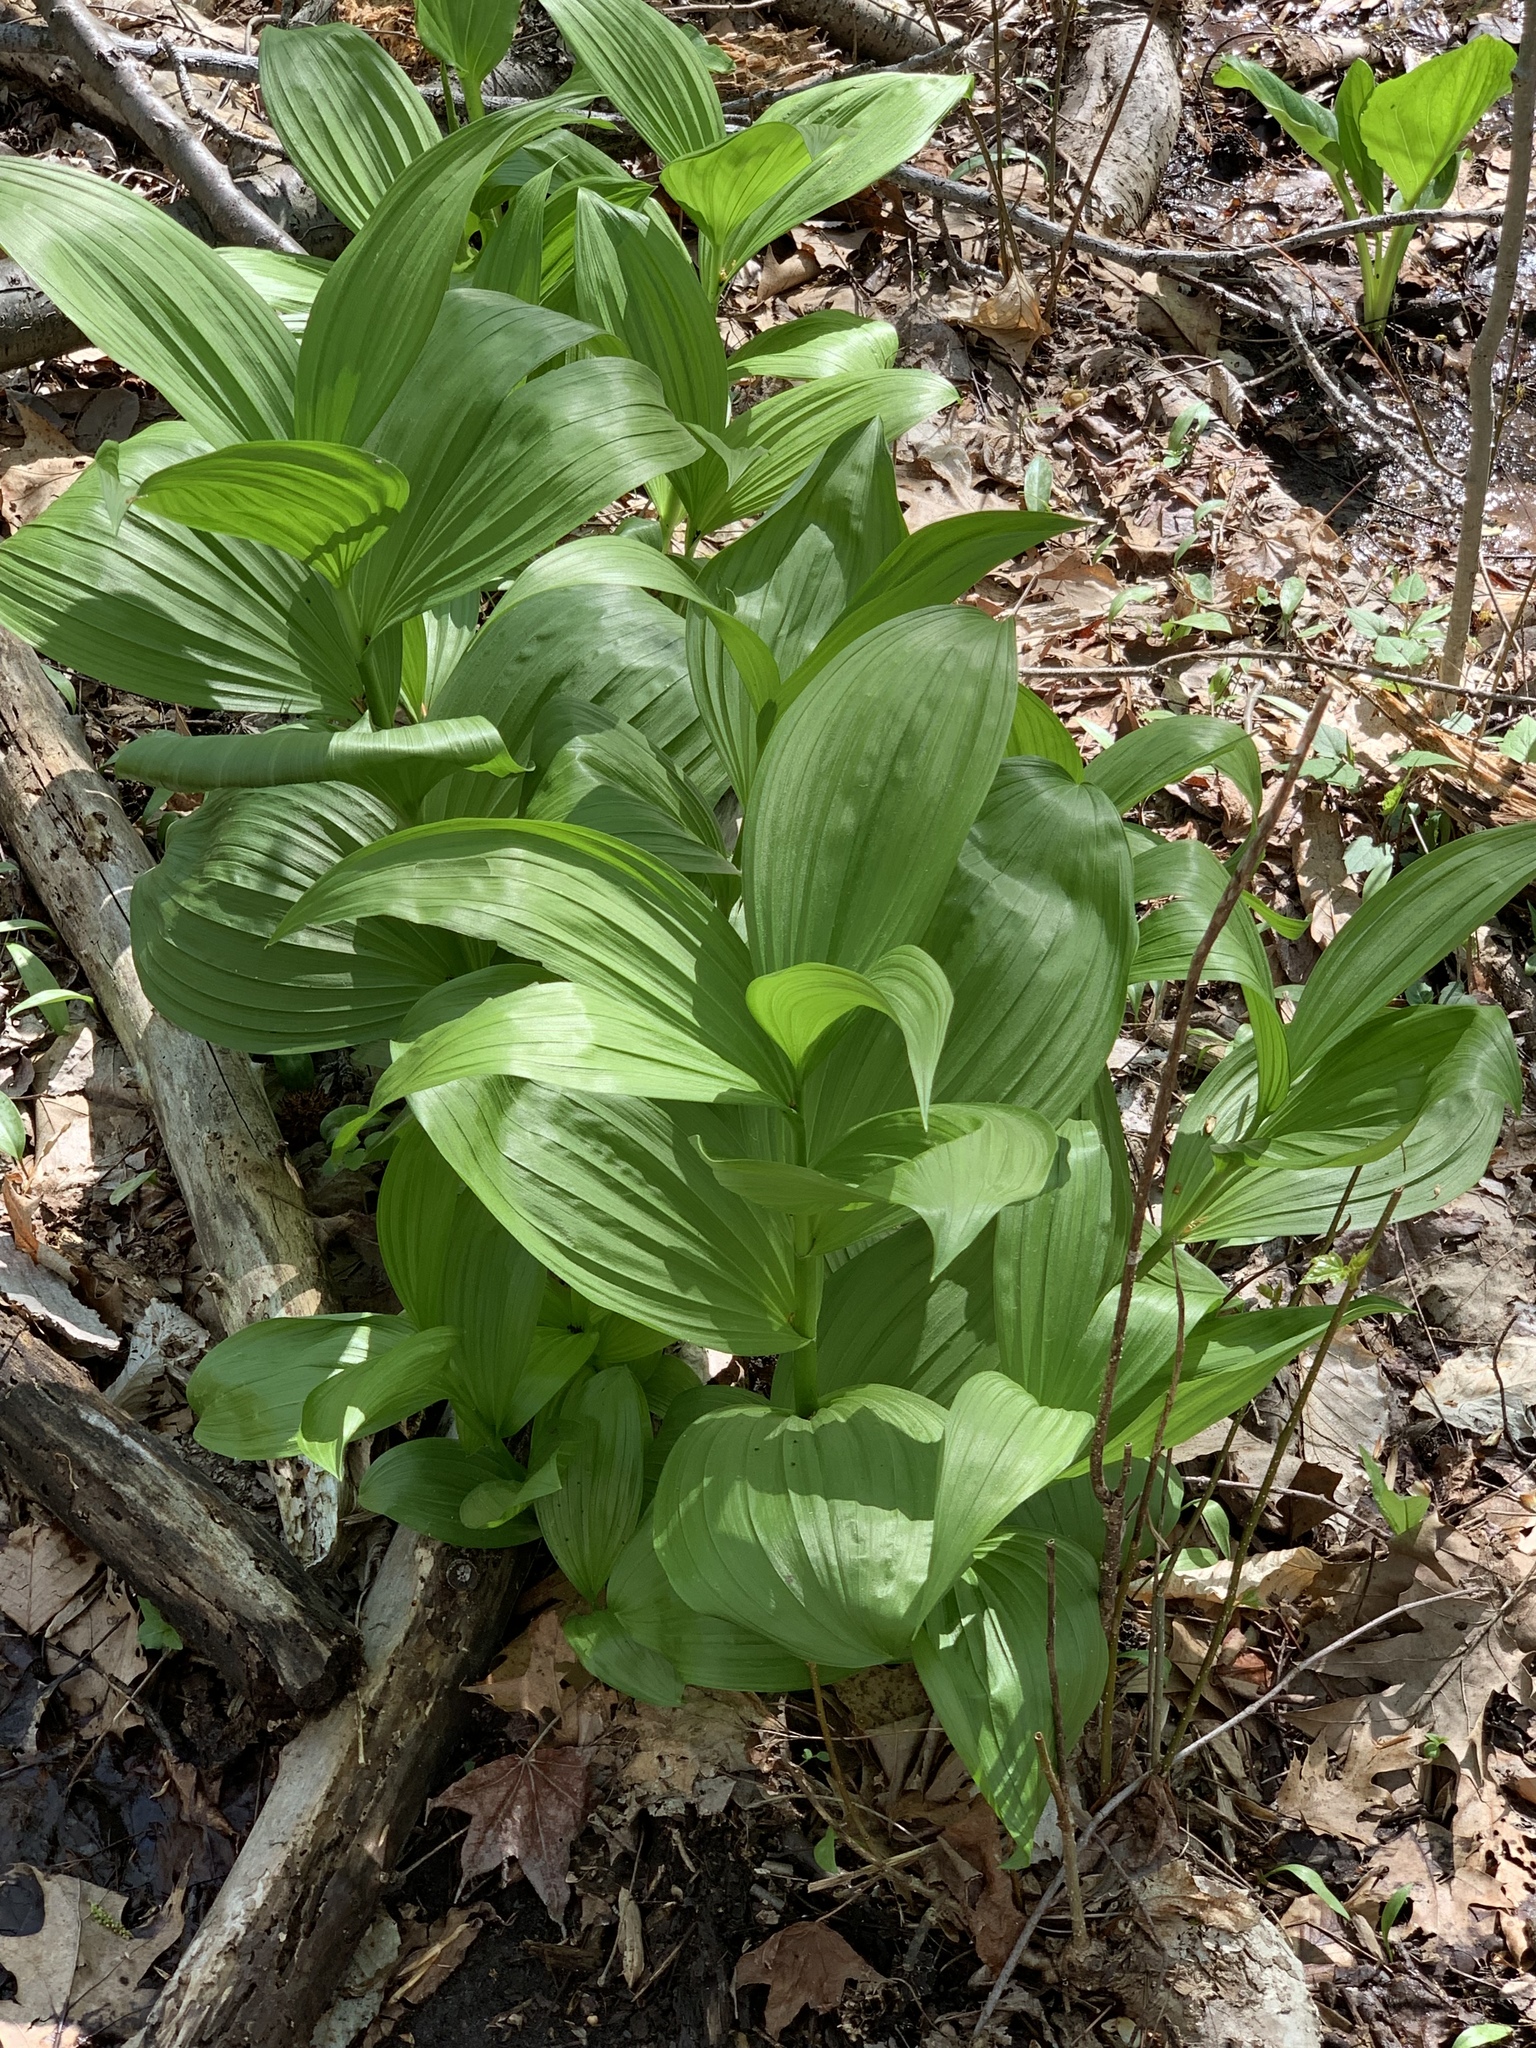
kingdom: Plantae
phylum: Tracheophyta
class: Liliopsida
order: Liliales
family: Melanthiaceae
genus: Veratrum
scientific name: Veratrum viride
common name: American false hellebore
